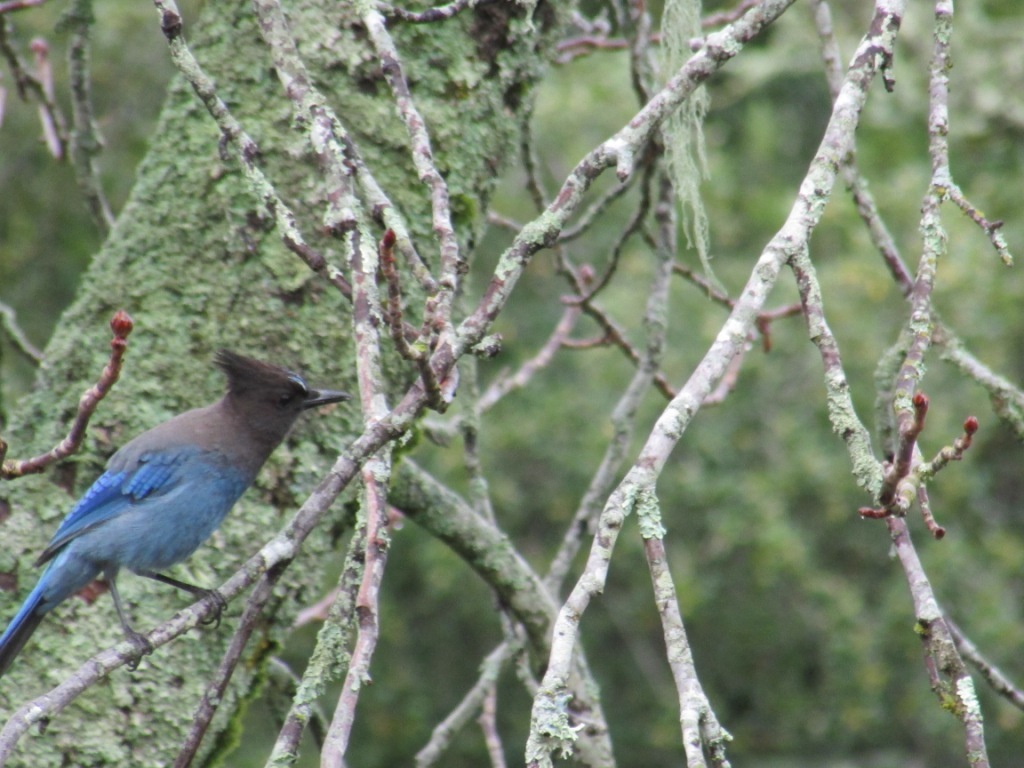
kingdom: Animalia
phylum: Chordata
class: Aves
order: Passeriformes
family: Corvidae
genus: Cyanocitta
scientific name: Cyanocitta stelleri
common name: Steller's jay
